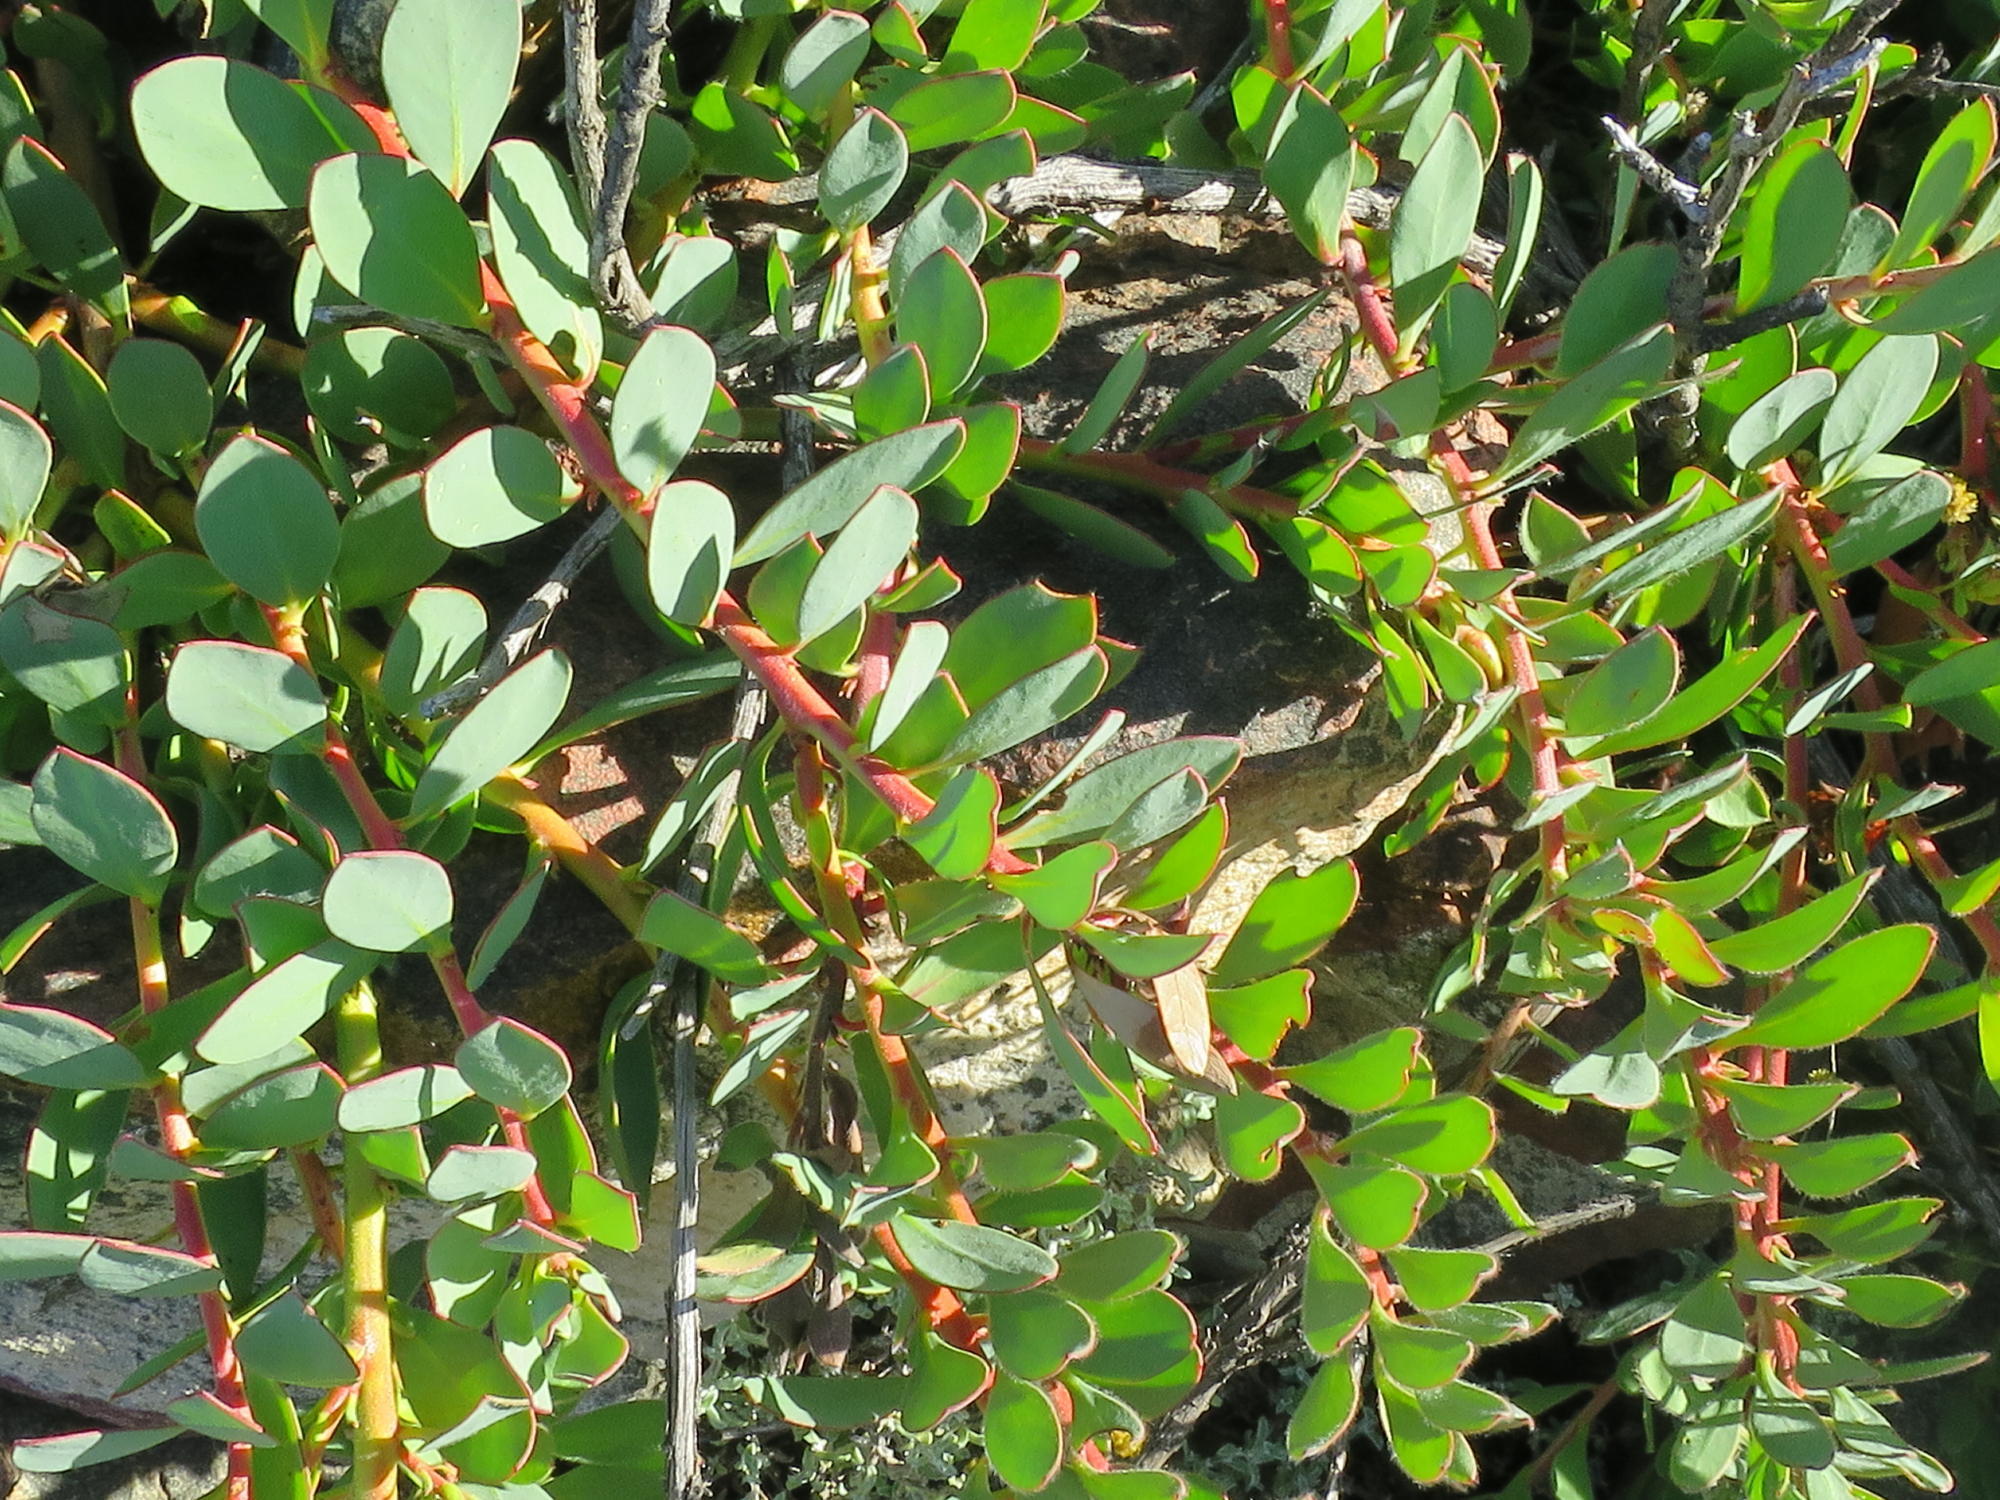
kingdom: Plantae
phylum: Tracheophyta
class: Magnoliopsida
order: Proteales
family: Proteaceae
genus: Protea
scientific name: Protea venusta
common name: Cascade sugarbush
